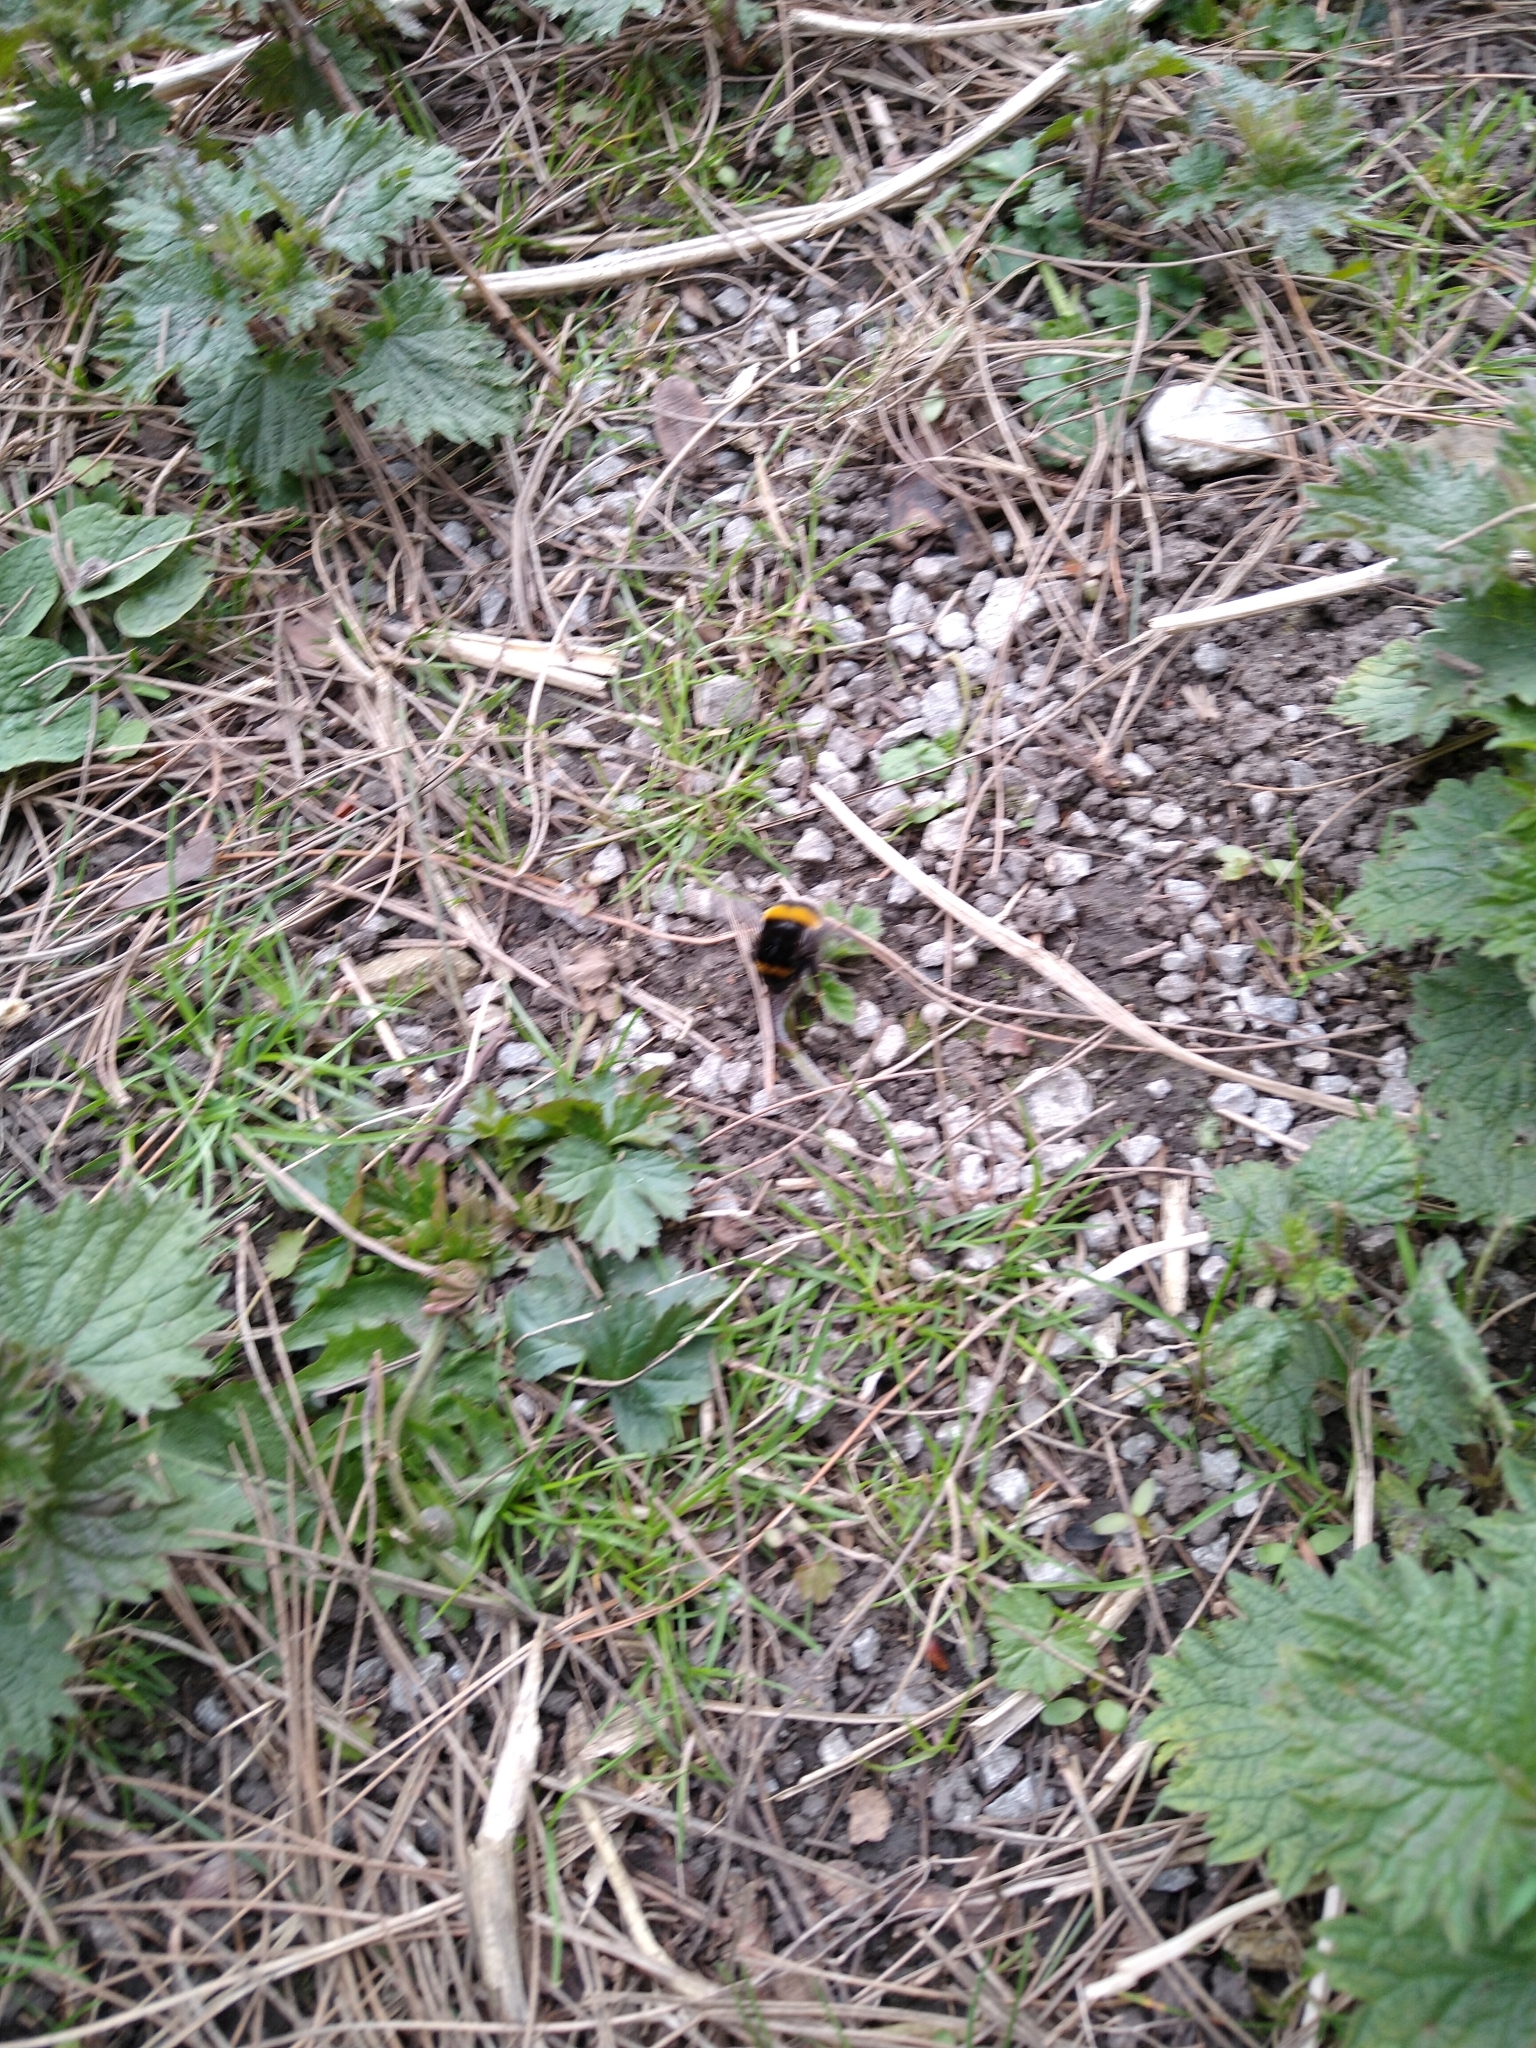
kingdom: Animalia
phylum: Arthropoda
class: Insecta
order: Hymenoptera
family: Apidae
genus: Bombus
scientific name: Bombus terrestris
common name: Buff-tailed bumblebee
